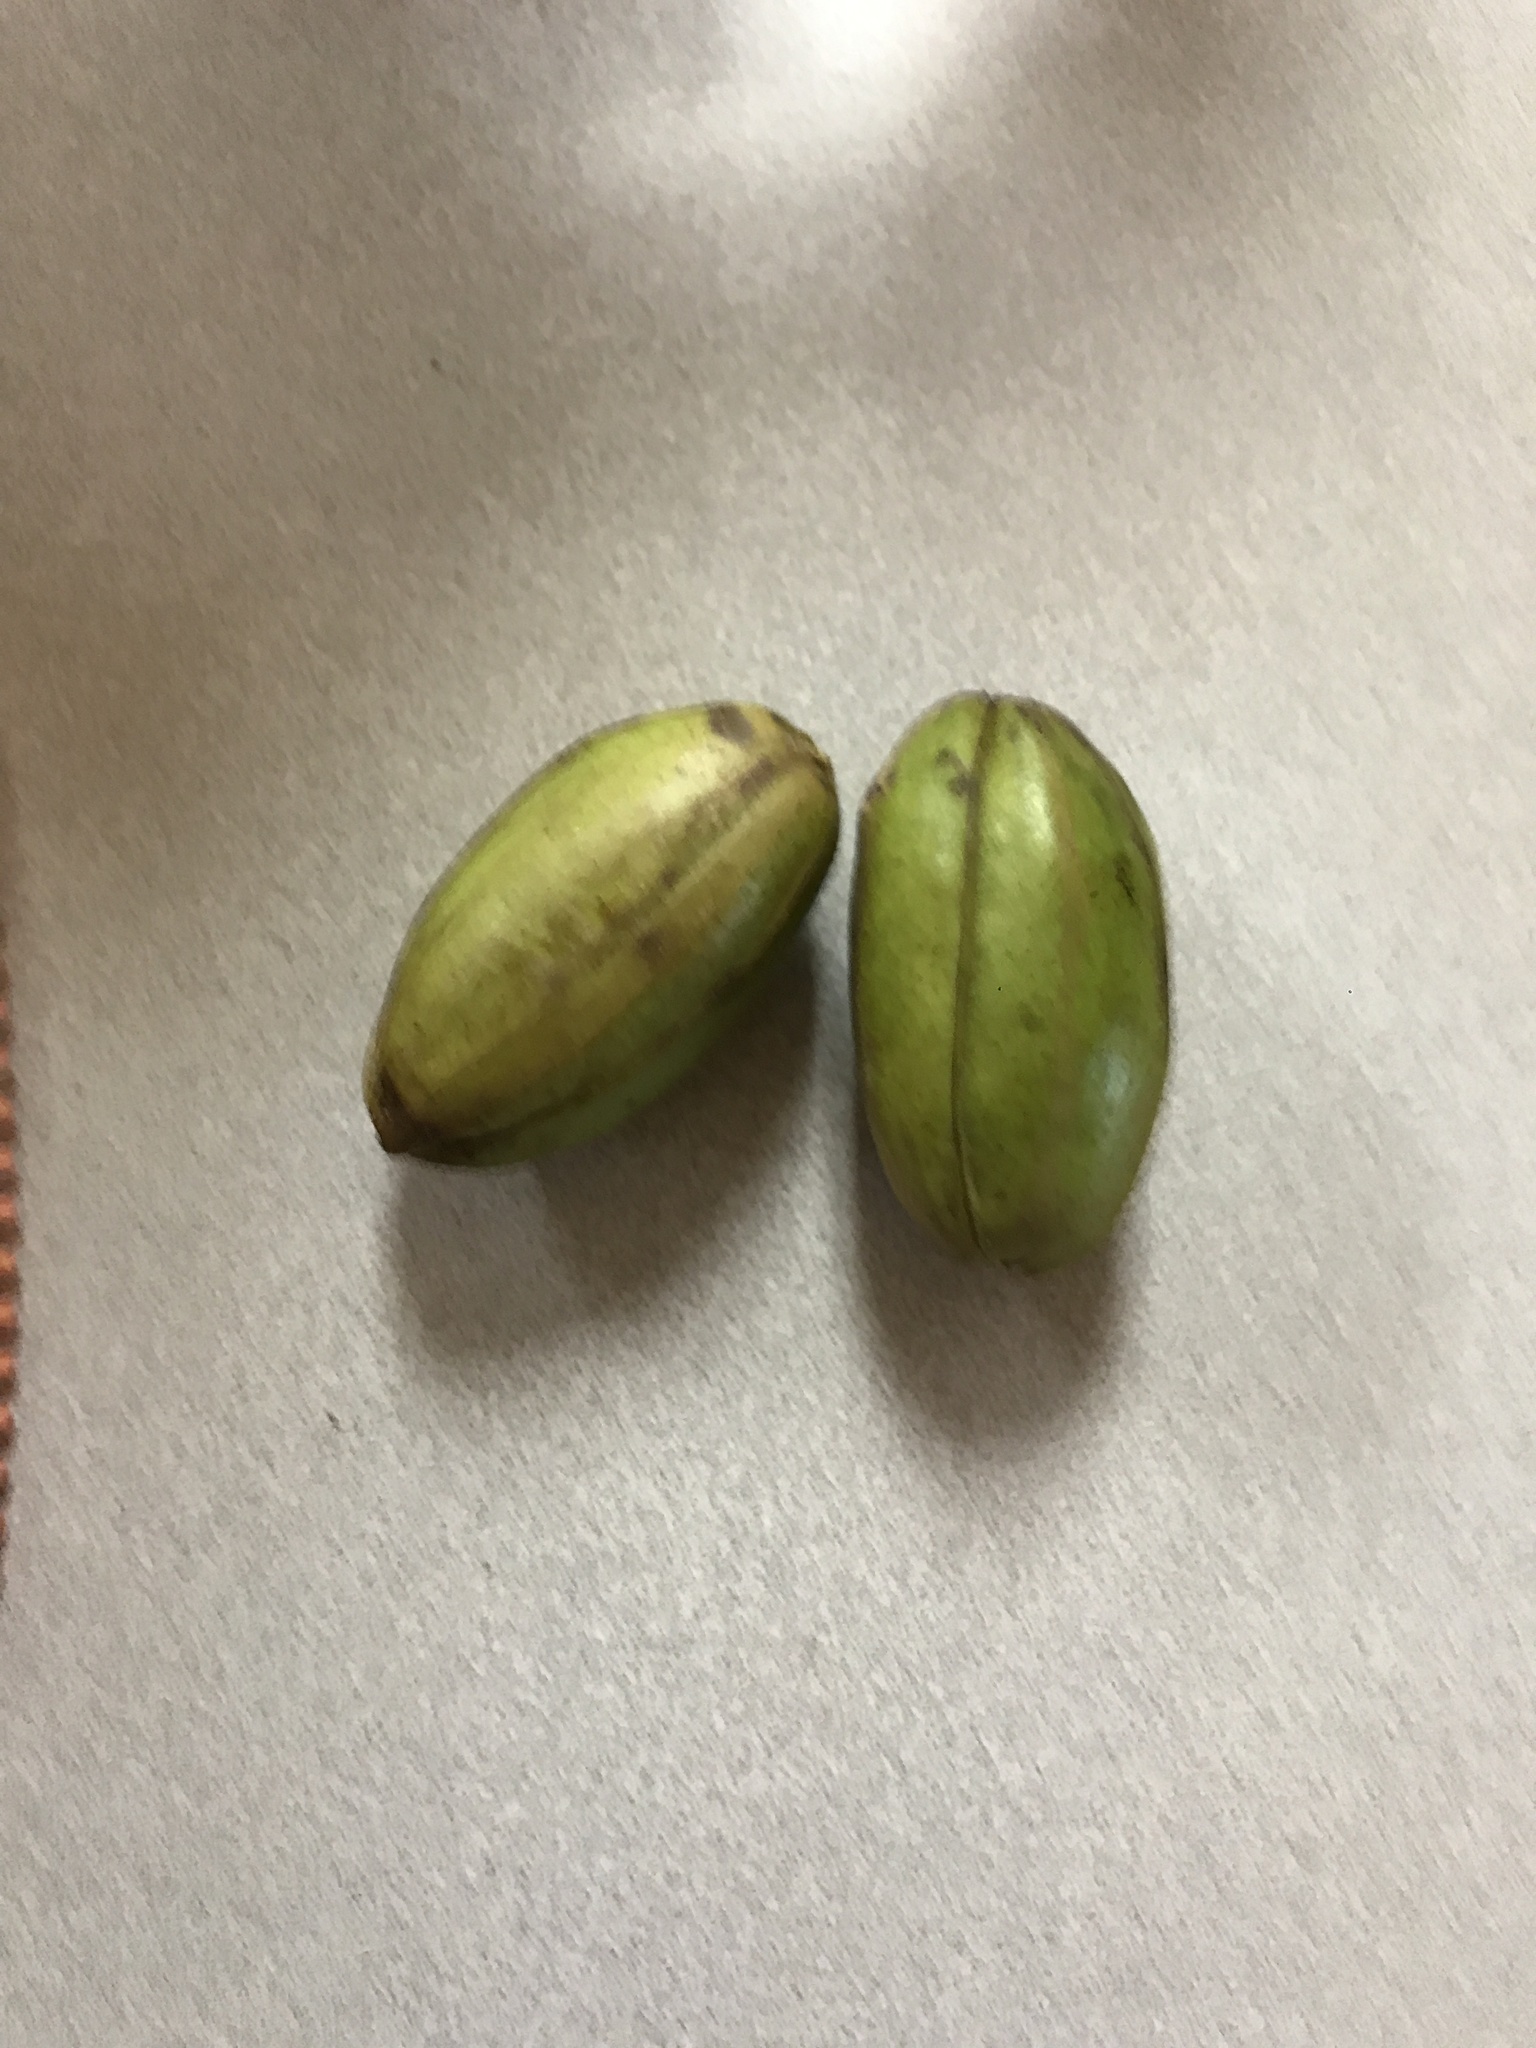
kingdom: Plantae
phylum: Tracheophyta
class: Magnoliopsida
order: Fagales
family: Juglandaceae
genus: Carya
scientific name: Carya illinoinensis
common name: Pecan
